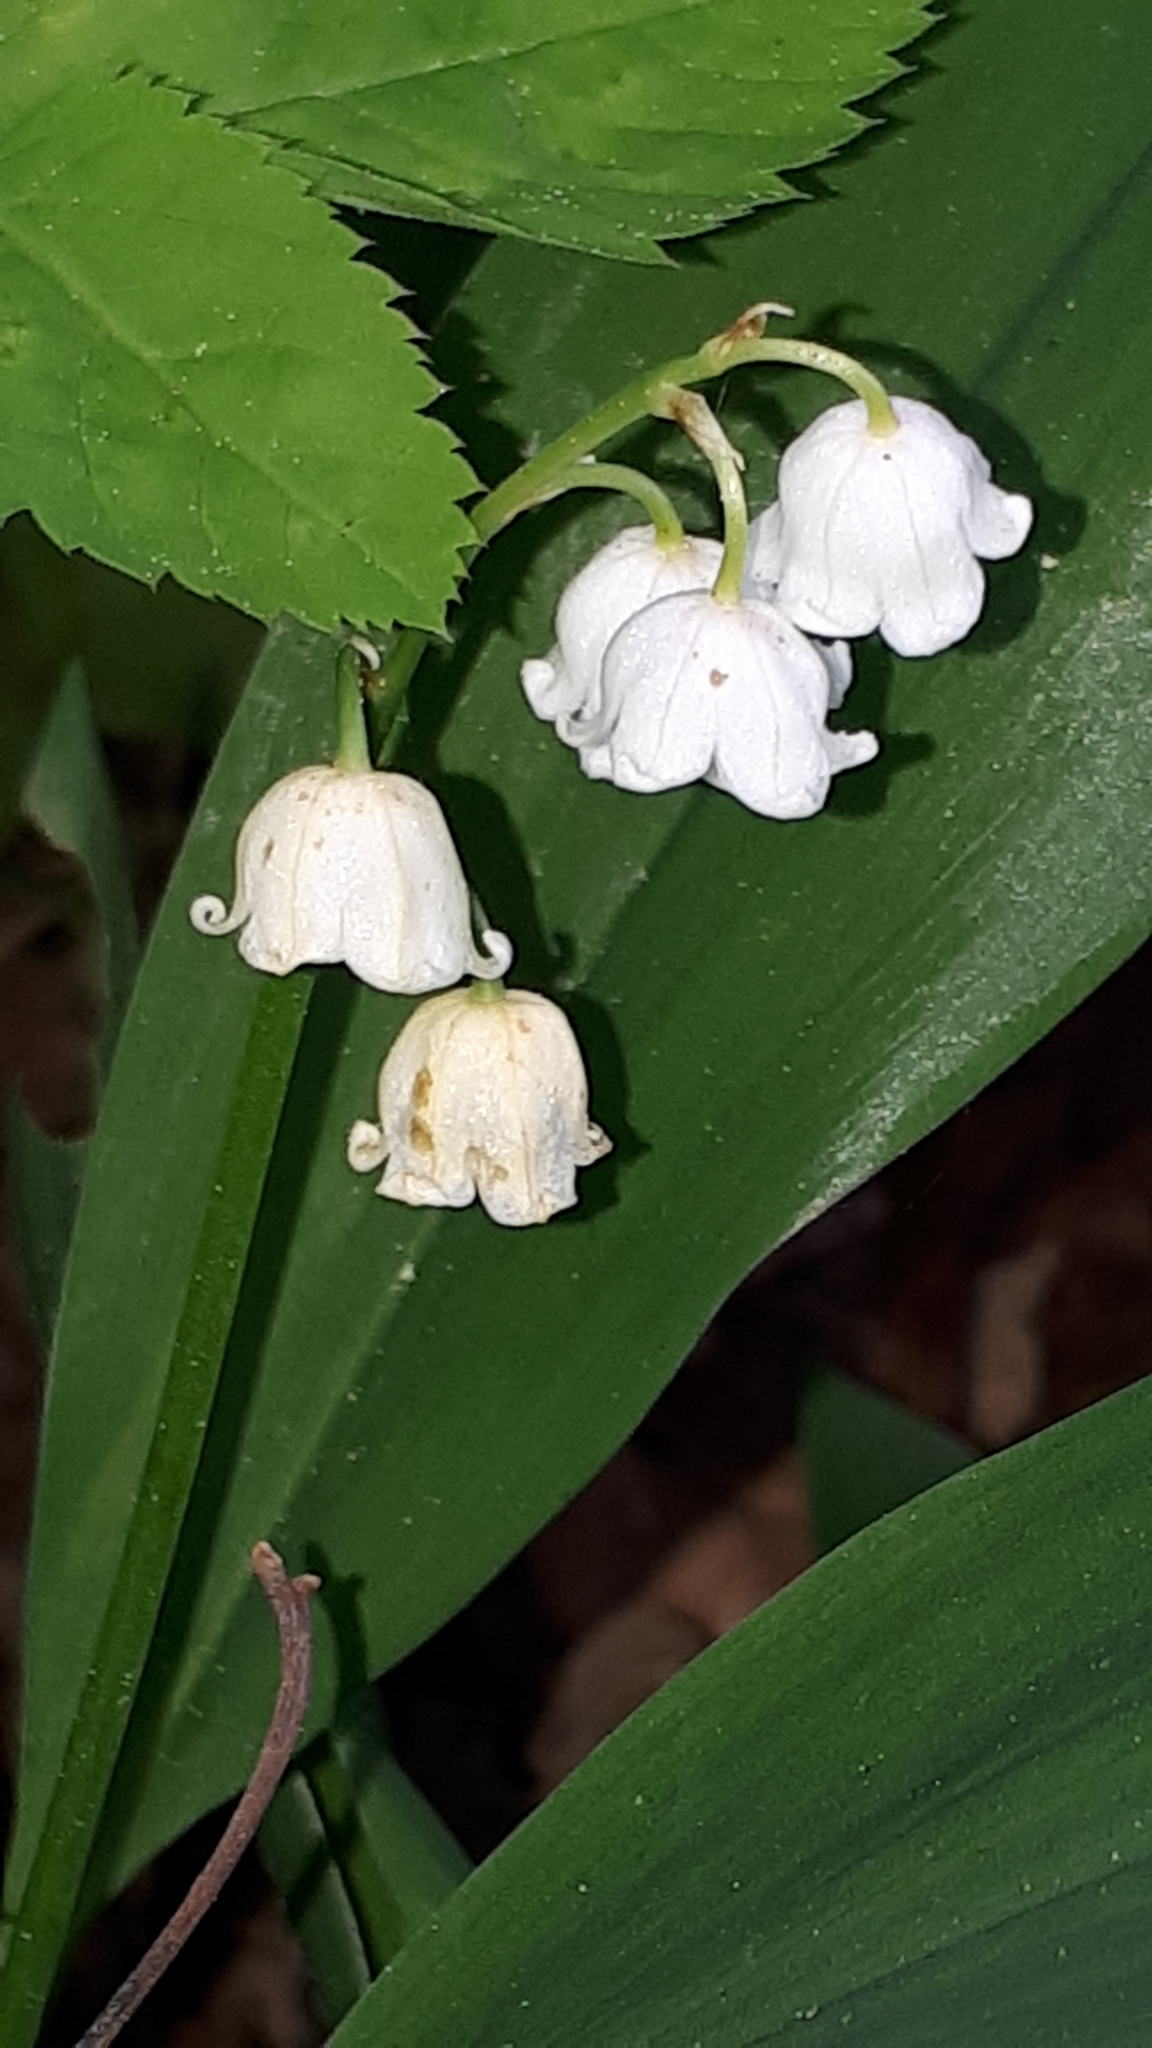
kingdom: Plantae
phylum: Tracheophyta
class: Liliopsida
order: Asparagales
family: Asparagaceae
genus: Convallaria
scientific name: Convallaria majalis
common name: Lily-of-the-valley
